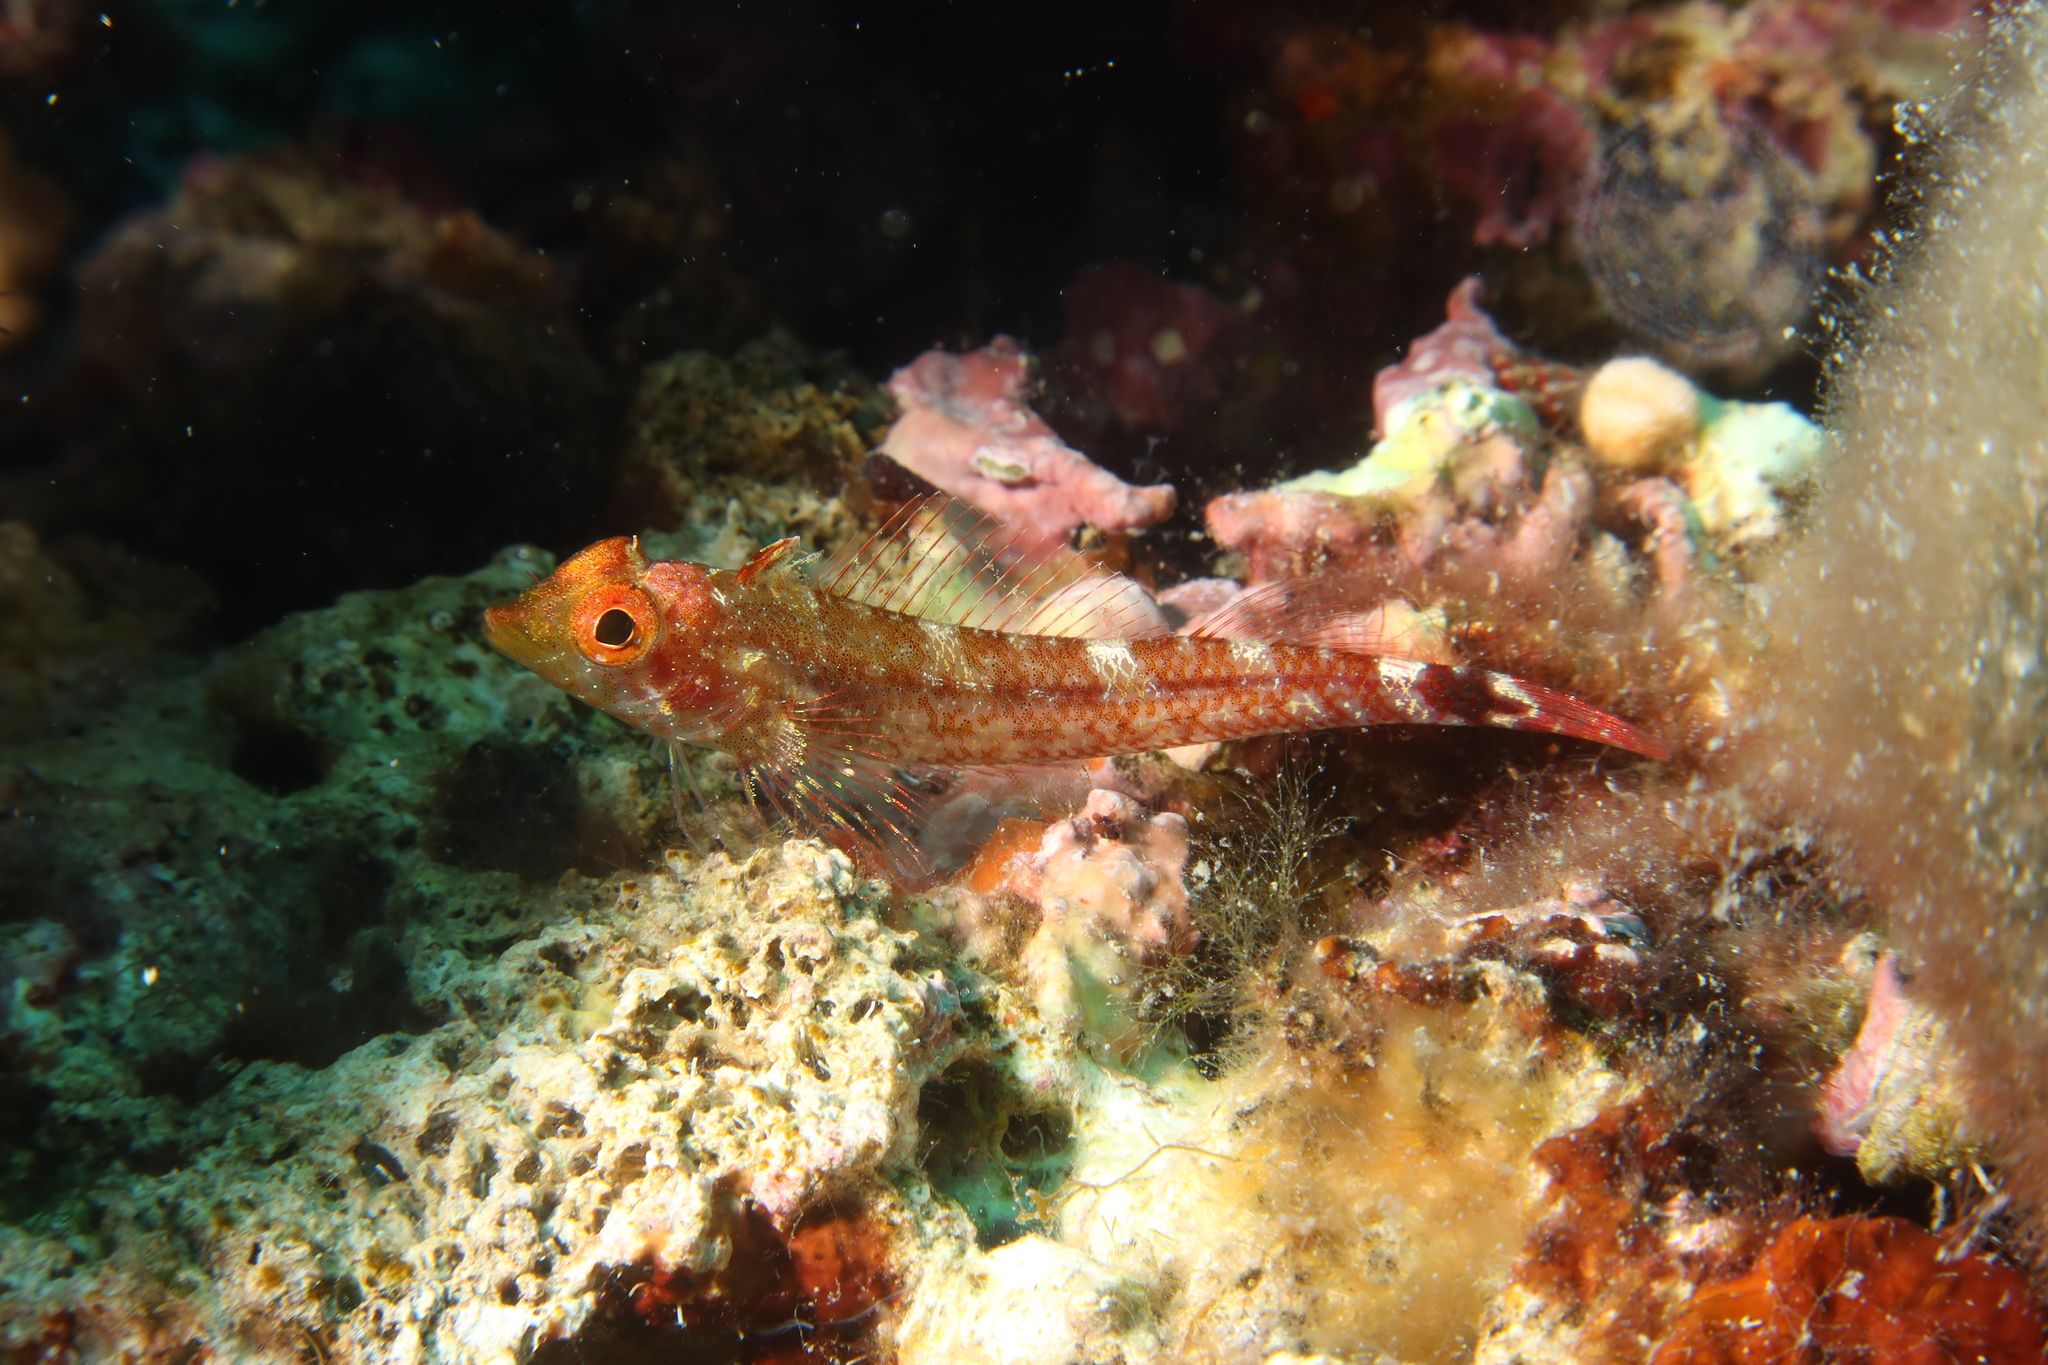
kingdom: Animalia
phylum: Chordata
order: Perciformes
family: Tripterygiidae
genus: Tripterygion
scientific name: Tripterygion delaisi
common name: Black-face blenny
